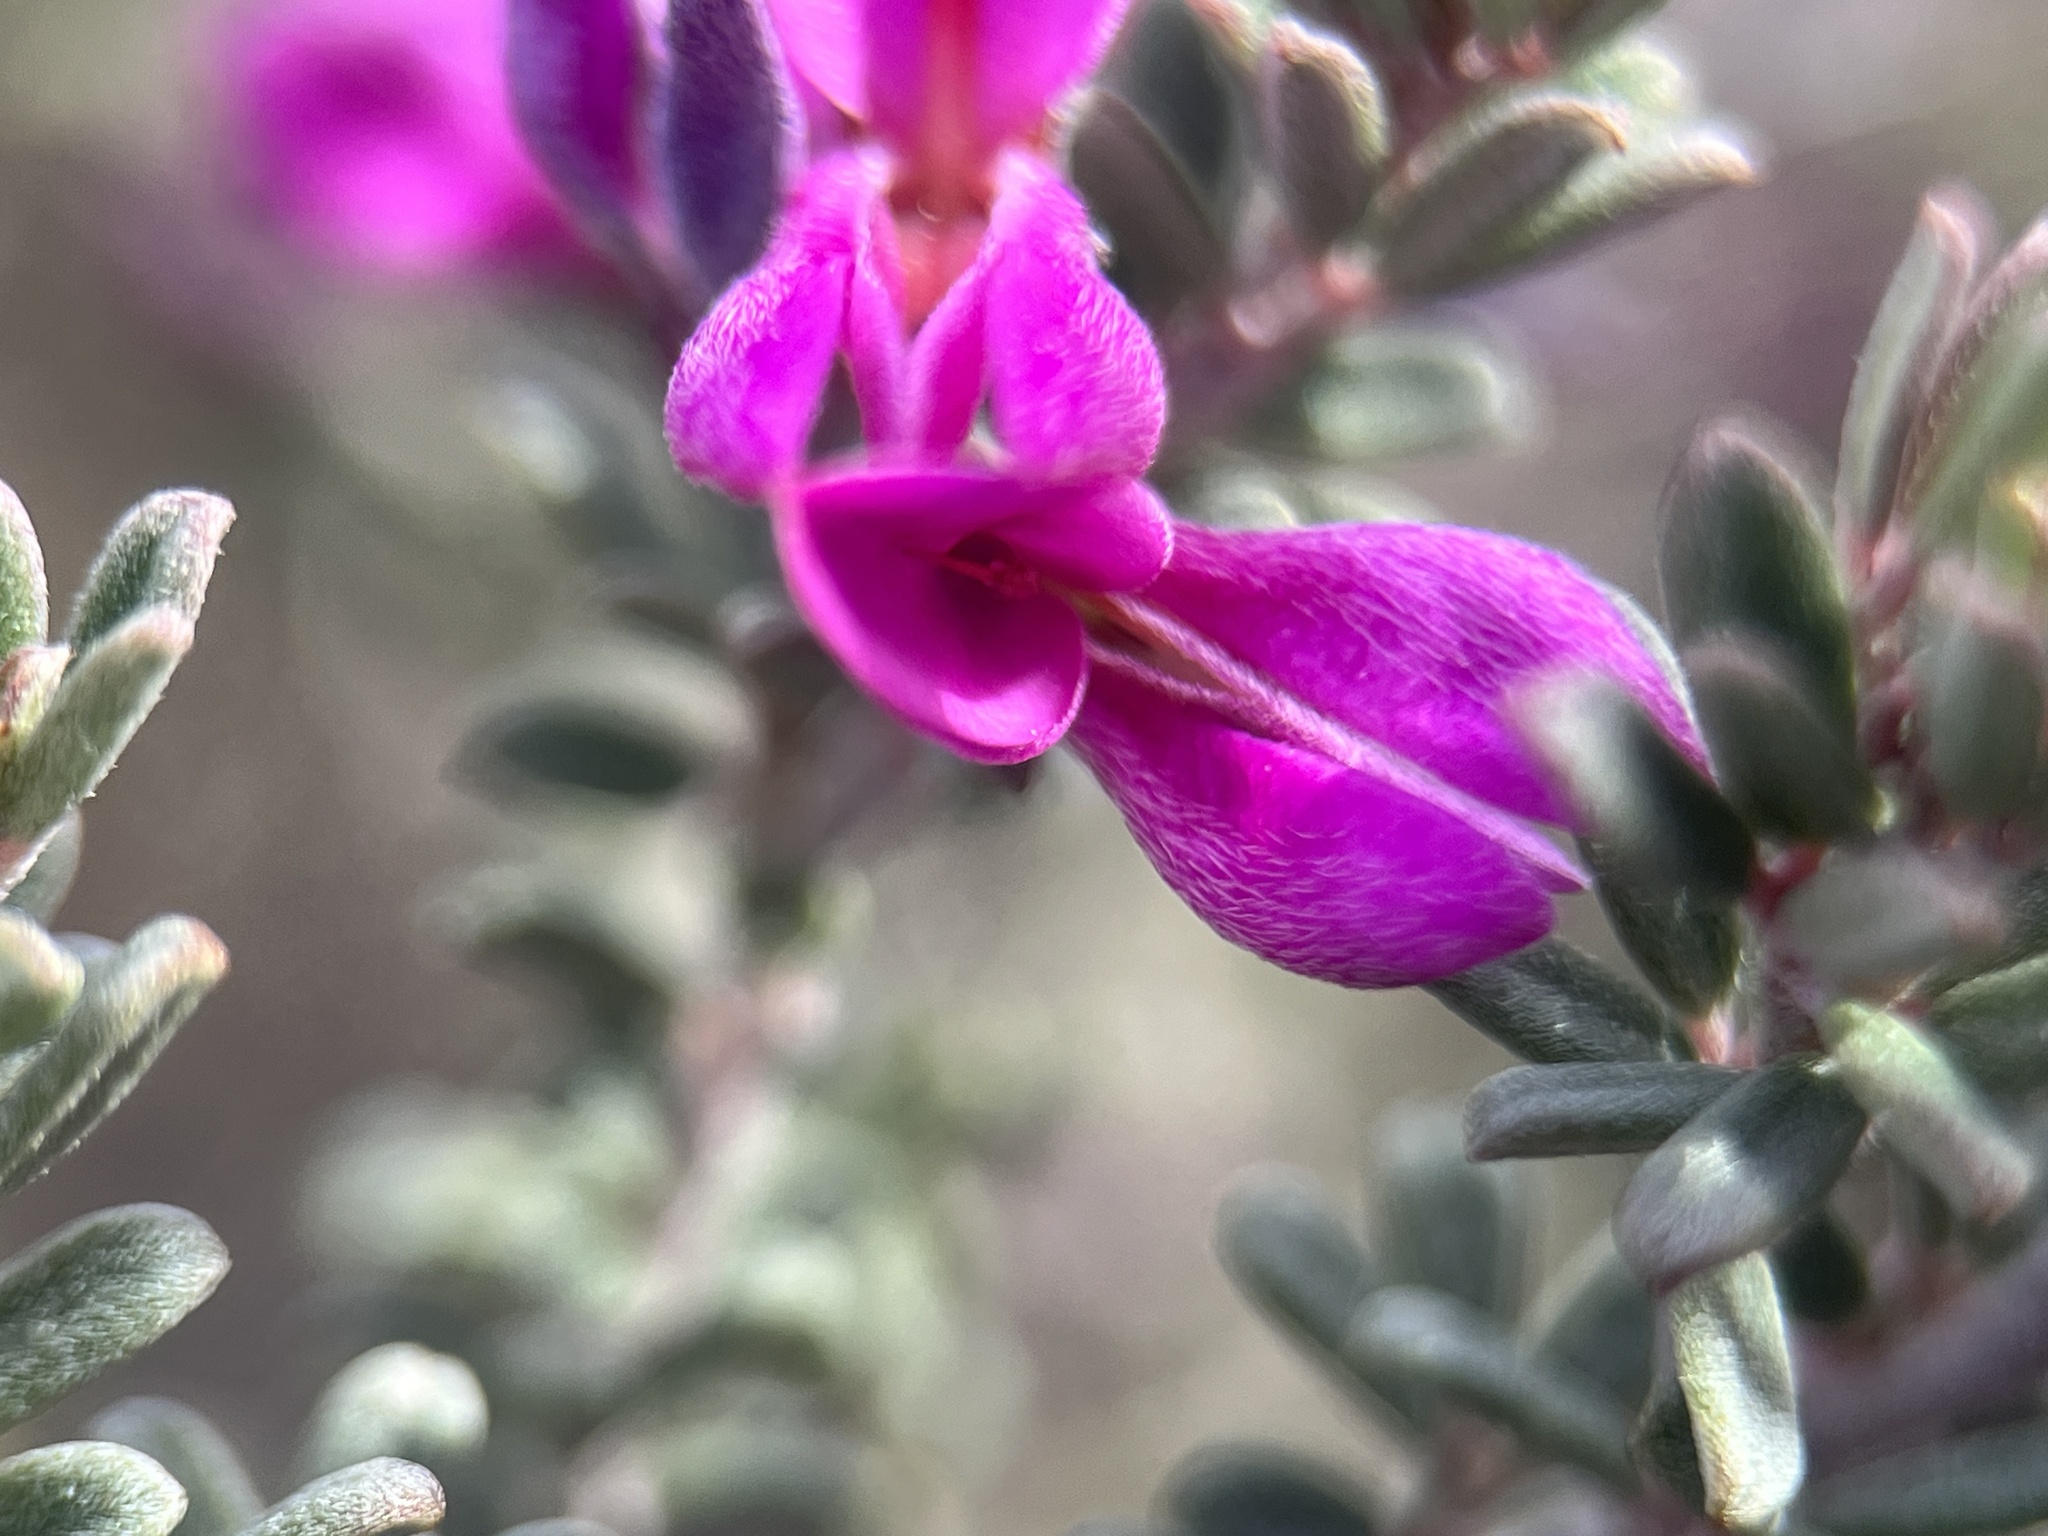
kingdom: Plantae
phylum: Tracheophyta
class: Magnoliopsida
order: Fabales
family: Fabaceae
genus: Indigofera
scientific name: Indigofera
